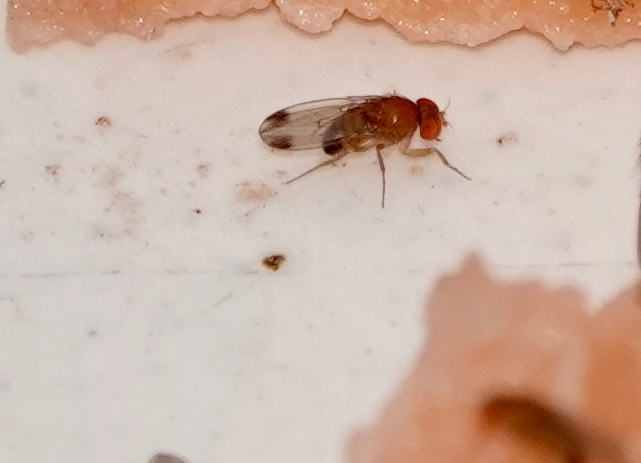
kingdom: Animalia
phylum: Arthropoda
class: Insecta
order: Diptera
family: Drosophilidae
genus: Drosophila
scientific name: Drosophila suzukii
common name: Spotted-wing drosophila
